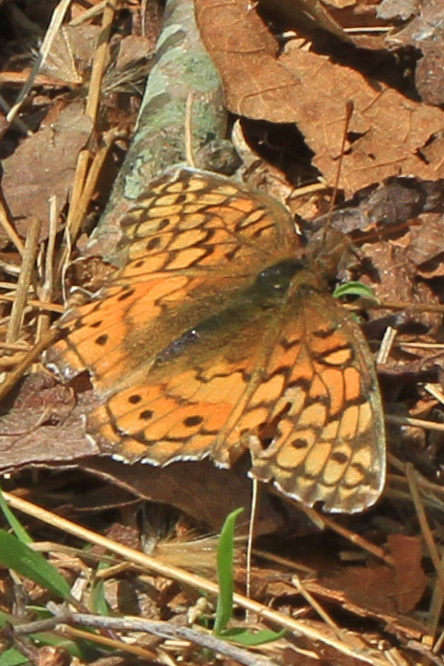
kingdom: Animalia
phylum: Arthropoda
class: Insecta
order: Lepidoptera
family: Nymphalidae
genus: Euptoieta
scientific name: Euptoieta claudia
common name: Variegated fritillary
